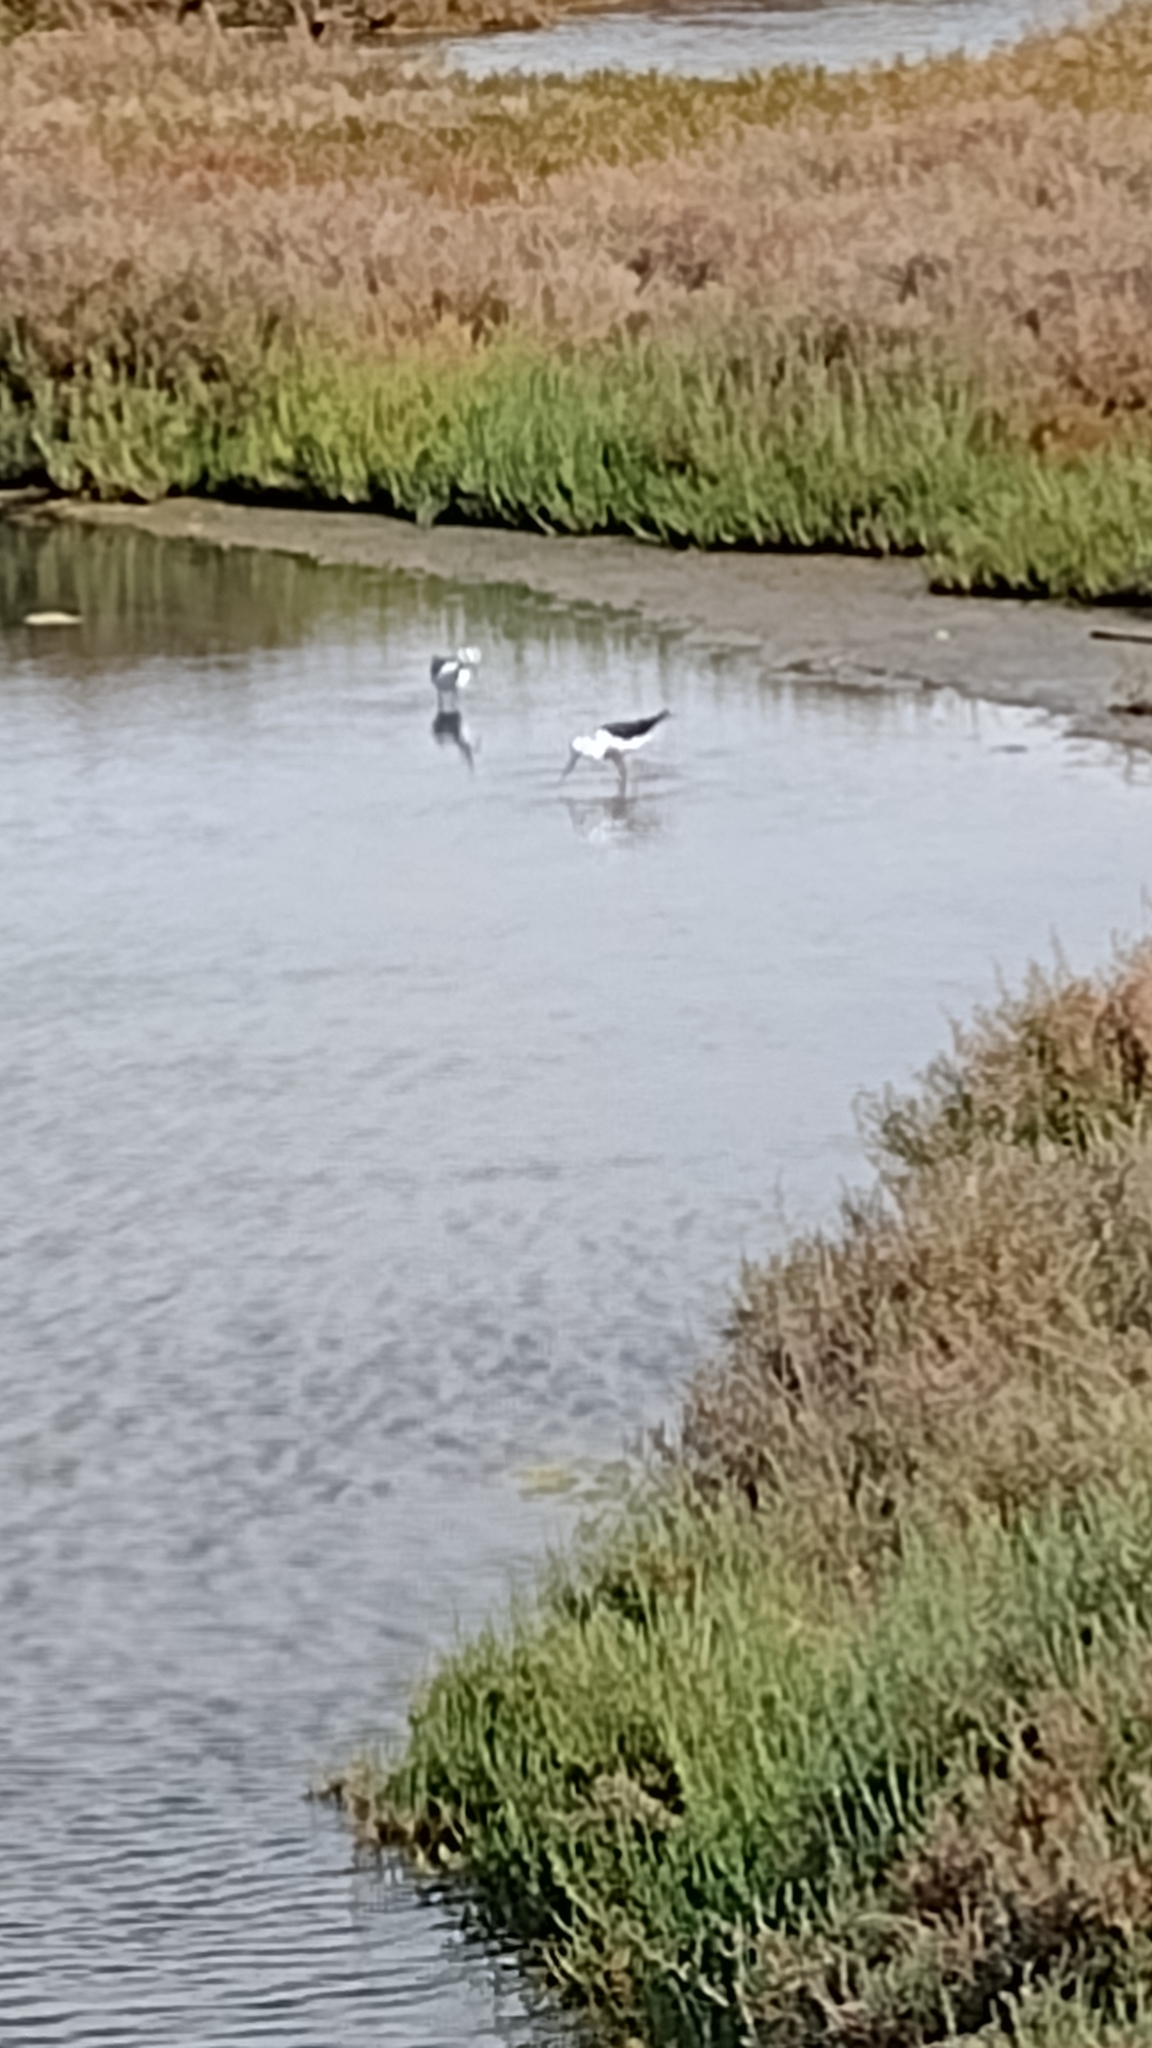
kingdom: Animalia
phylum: Chordata
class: Aves
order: Charadriiformes
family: Recurvirostridae
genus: Himantopus
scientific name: Himantopus himantopus
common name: Black-winged stilt
